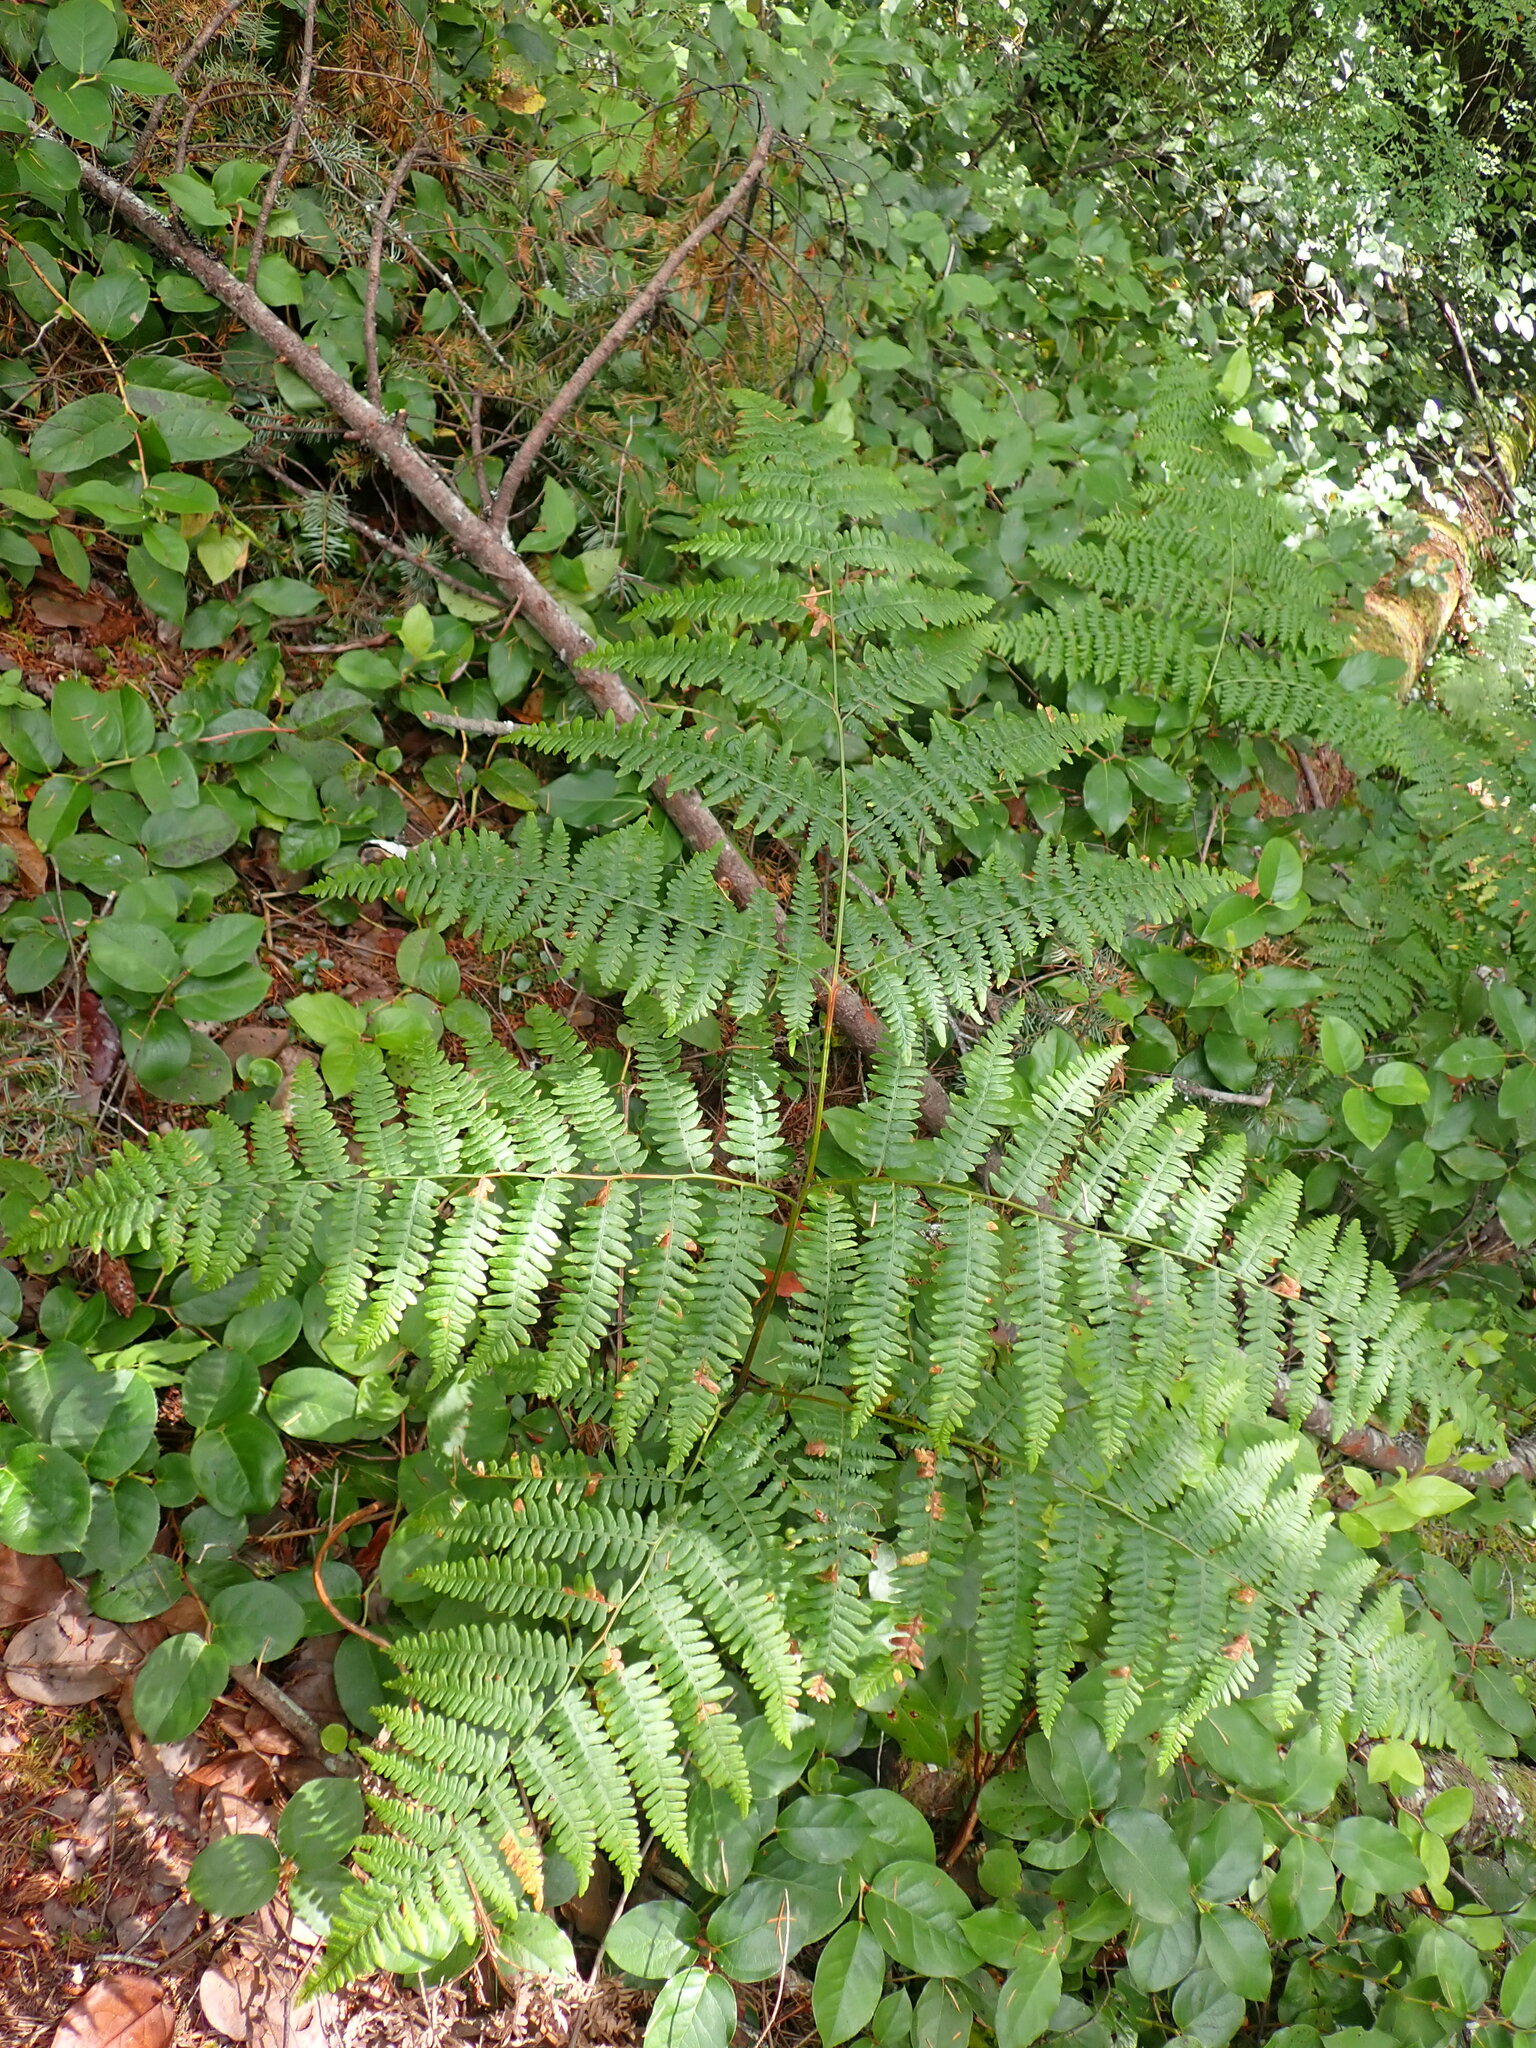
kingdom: Plantae
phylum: Tracheophyta
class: Polypodiopsida
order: Polypodiales
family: Dennstaedtiaceae
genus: Pteridium
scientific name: Pteridium aquilinum
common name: Bracken
